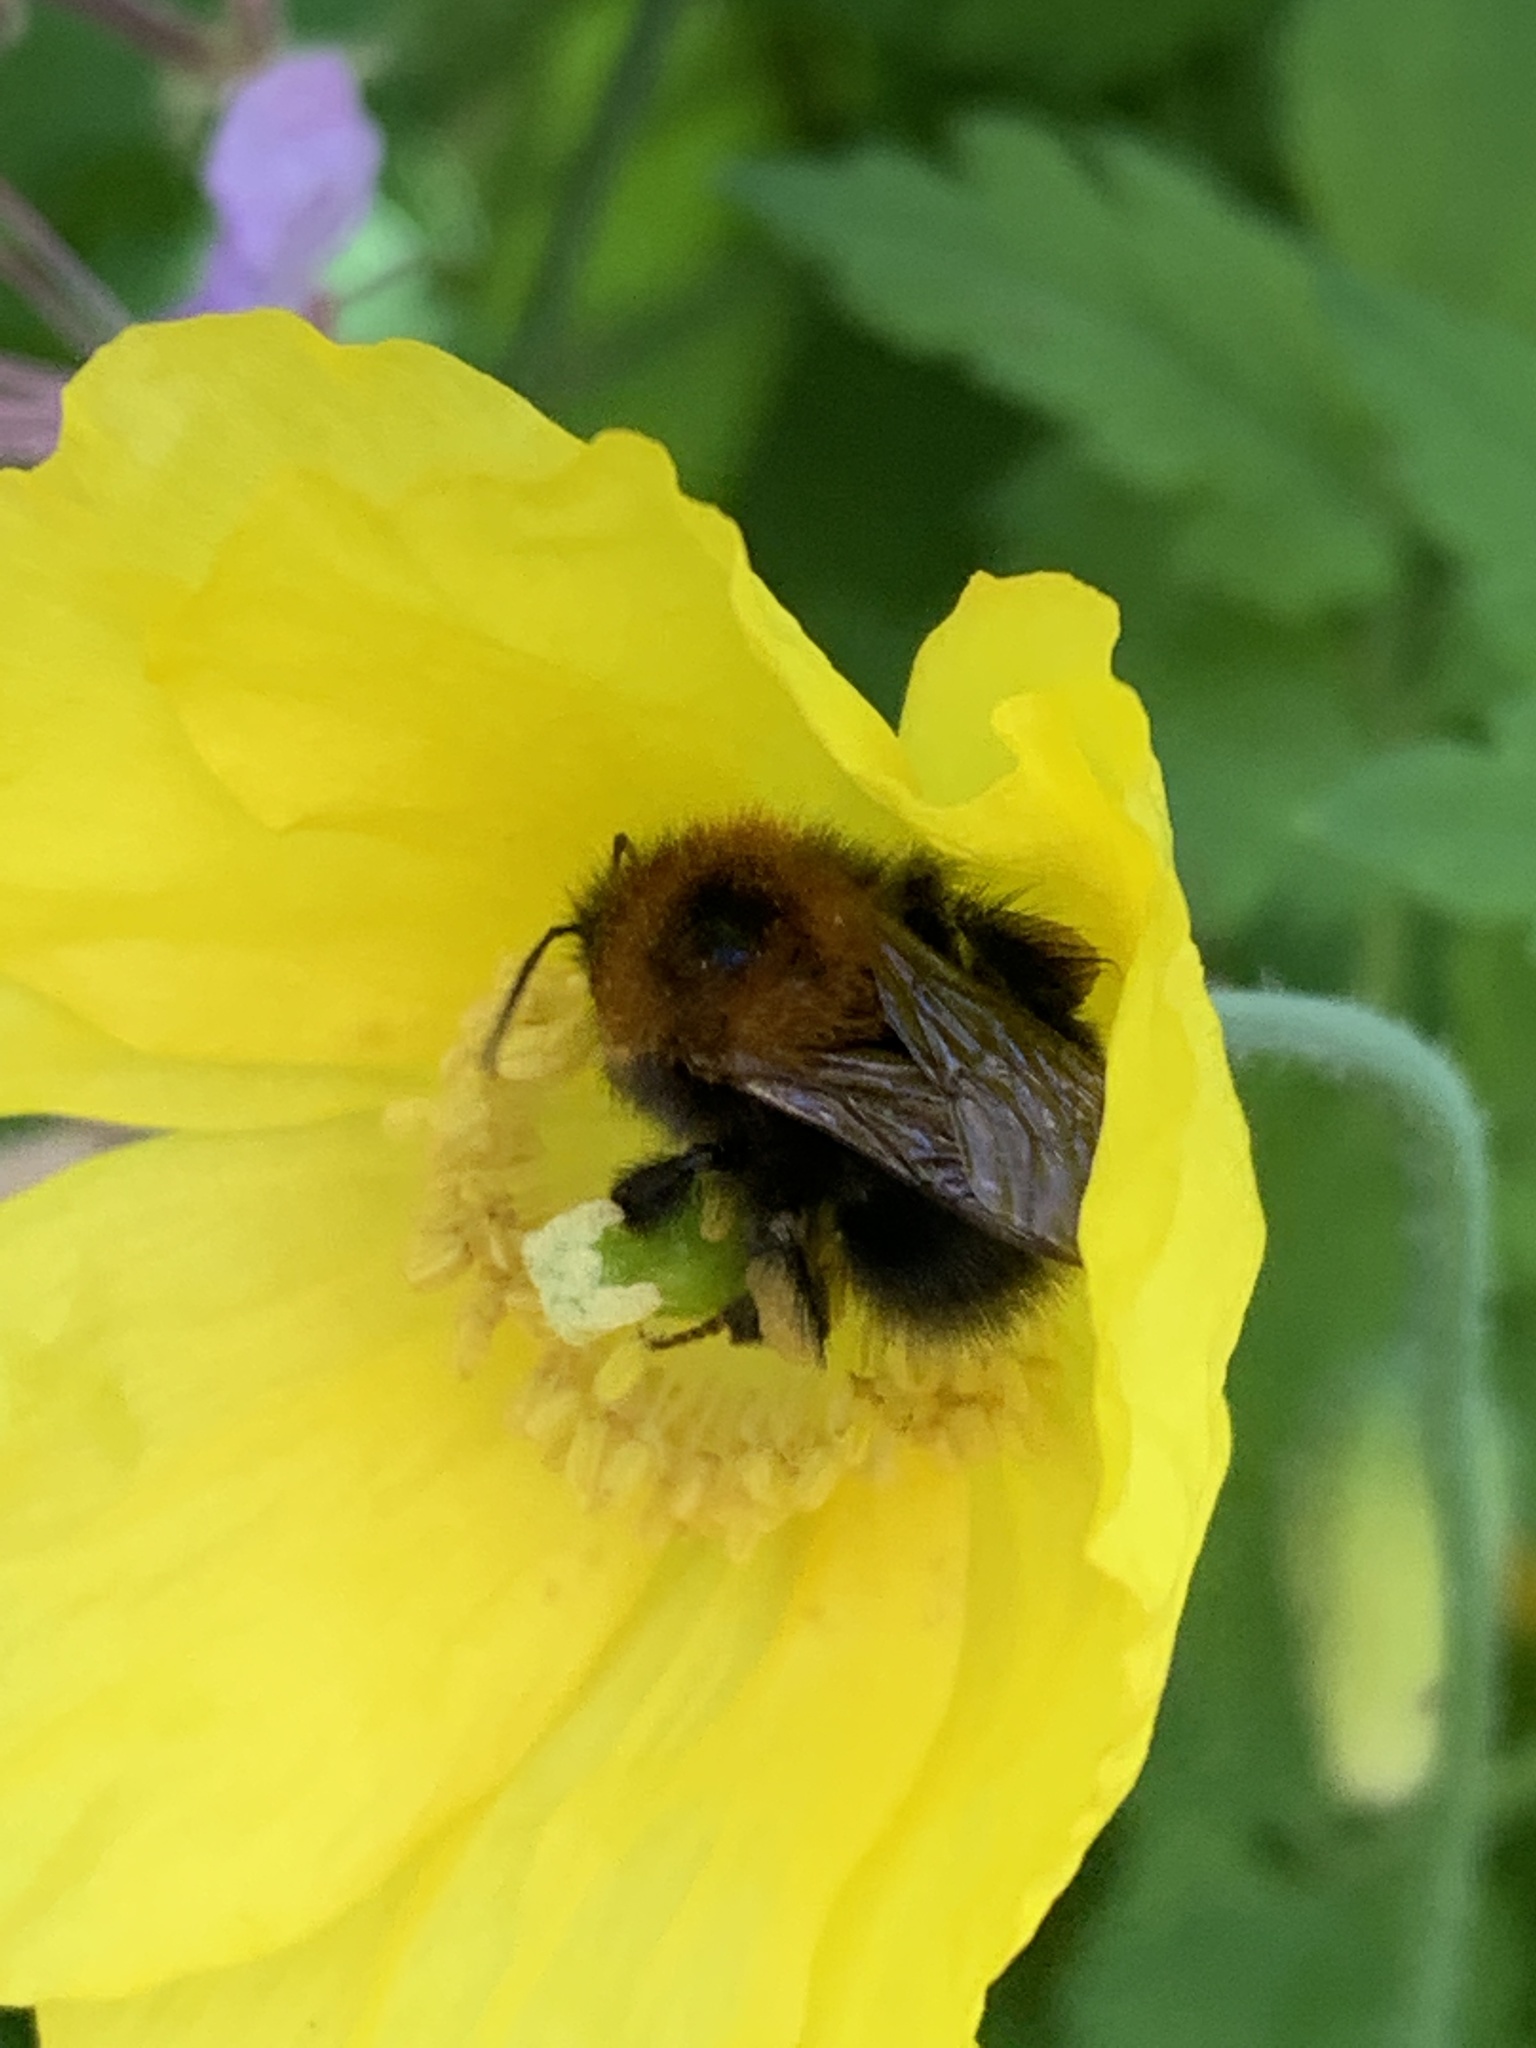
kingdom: Animalia
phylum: Arthropoda
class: Insecta
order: Hymenoptera
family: Apidae
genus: Bombus
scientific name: Bombus hypnorum
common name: New garden bumblebee
